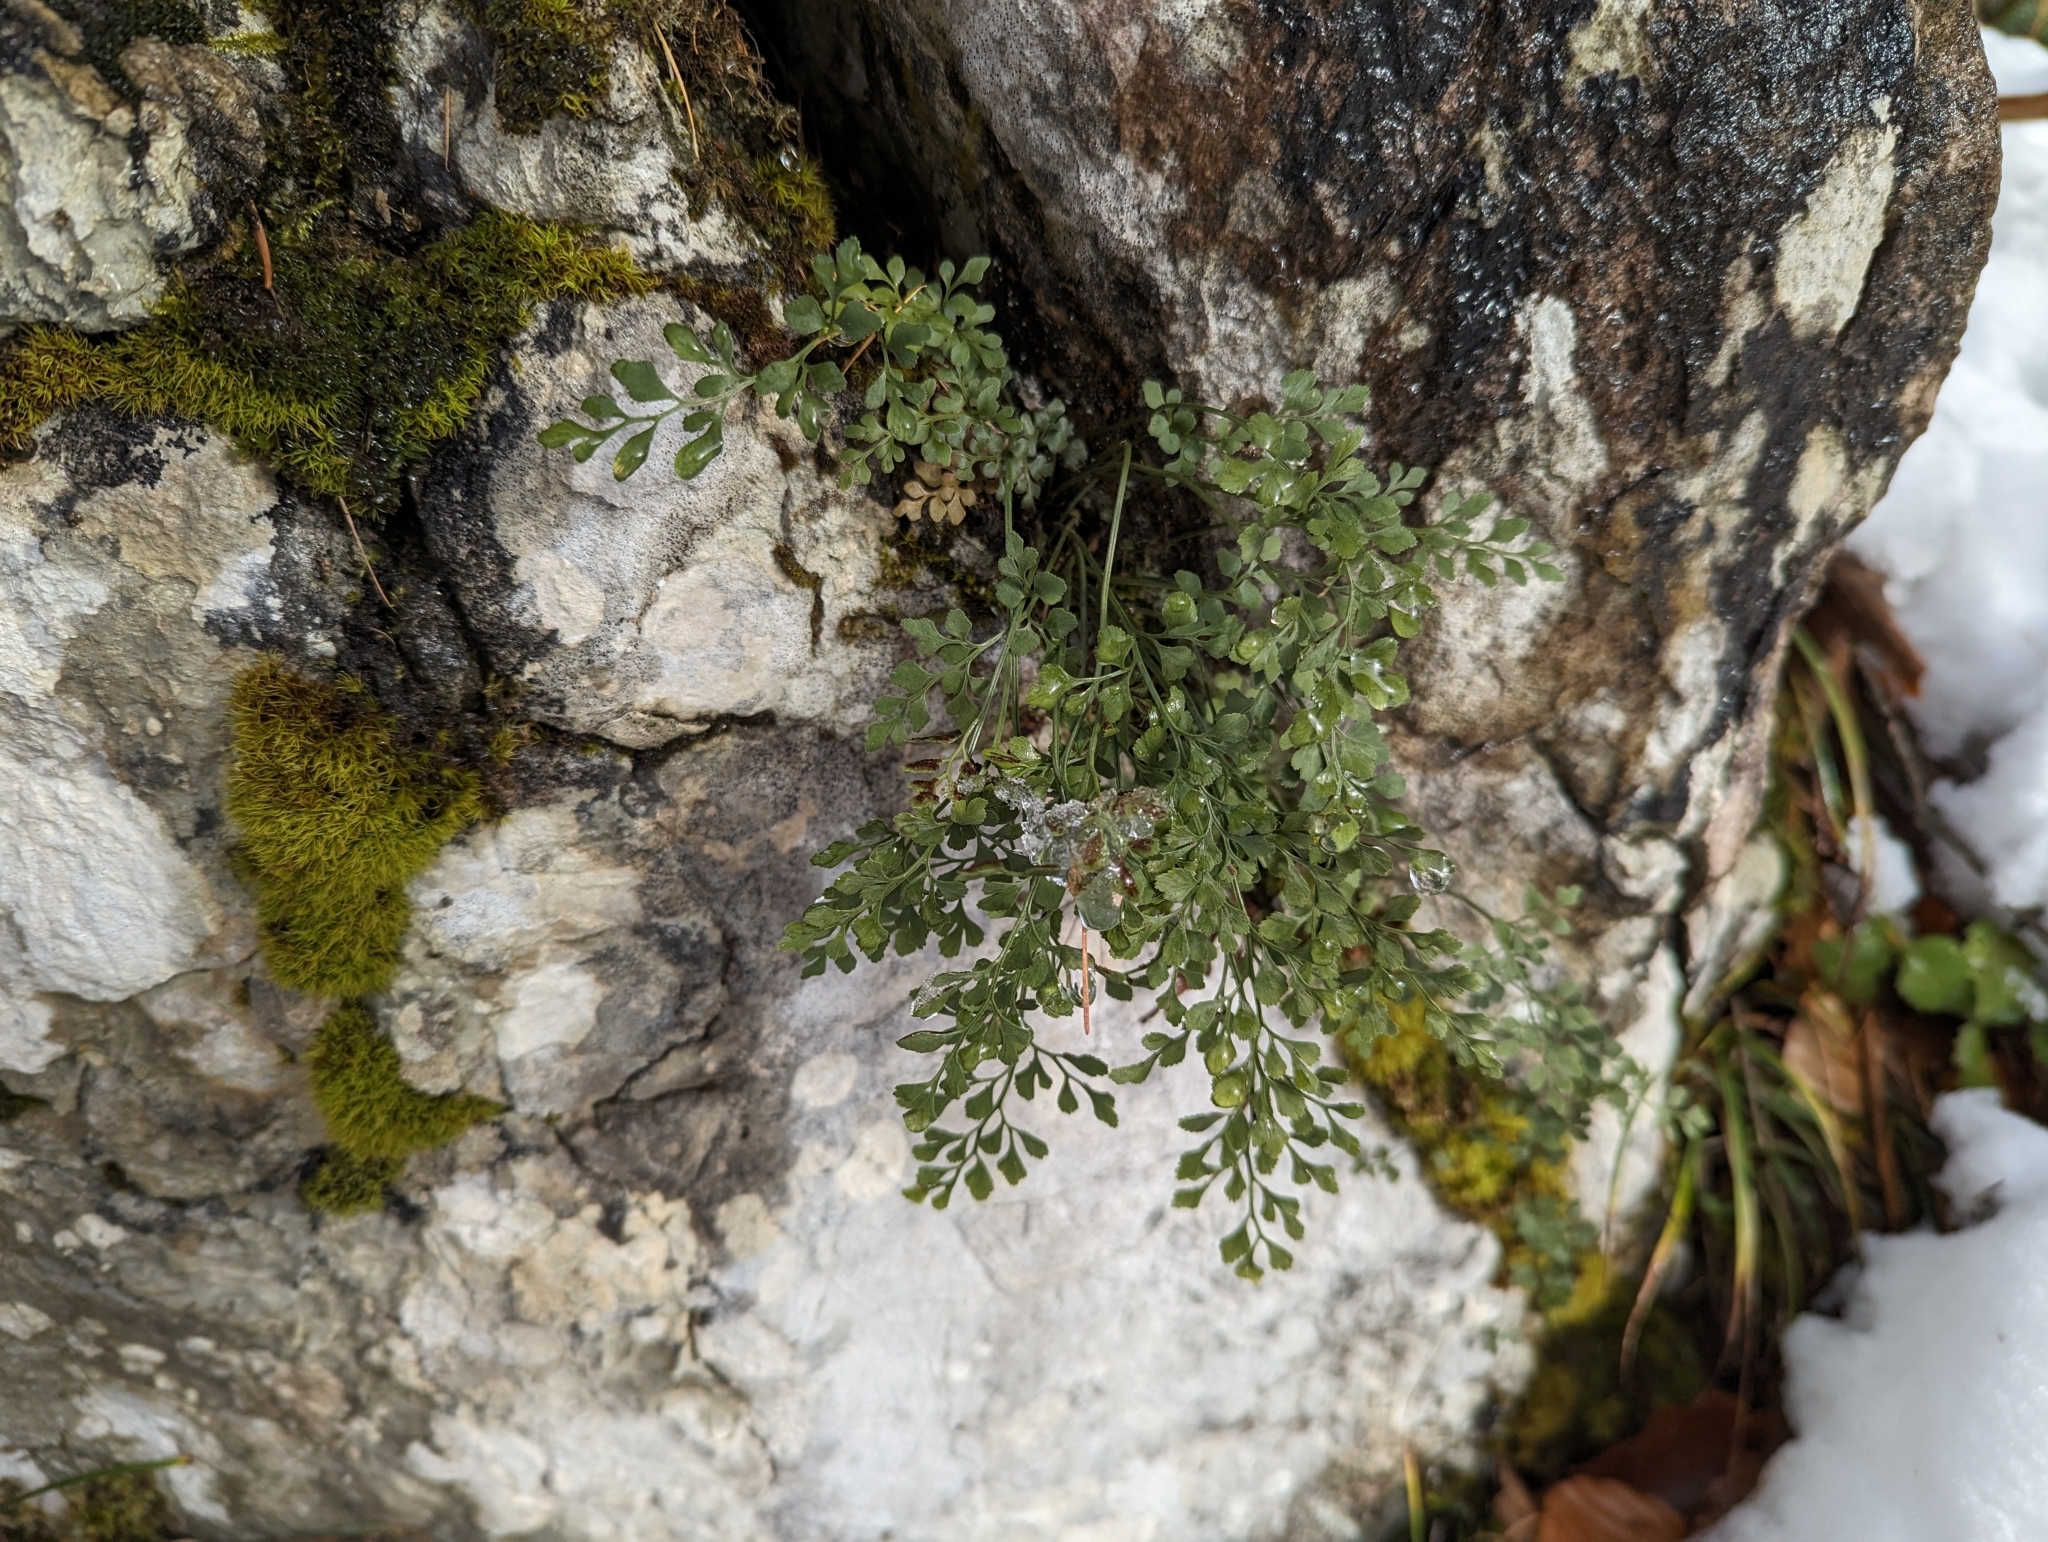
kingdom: Plantae
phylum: Tracheophyta
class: Polypodiopsida
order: Polypodiales
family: Aspleniaceae
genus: Asplenium
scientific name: Asplenium ruta-muraria
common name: Wall-rue
